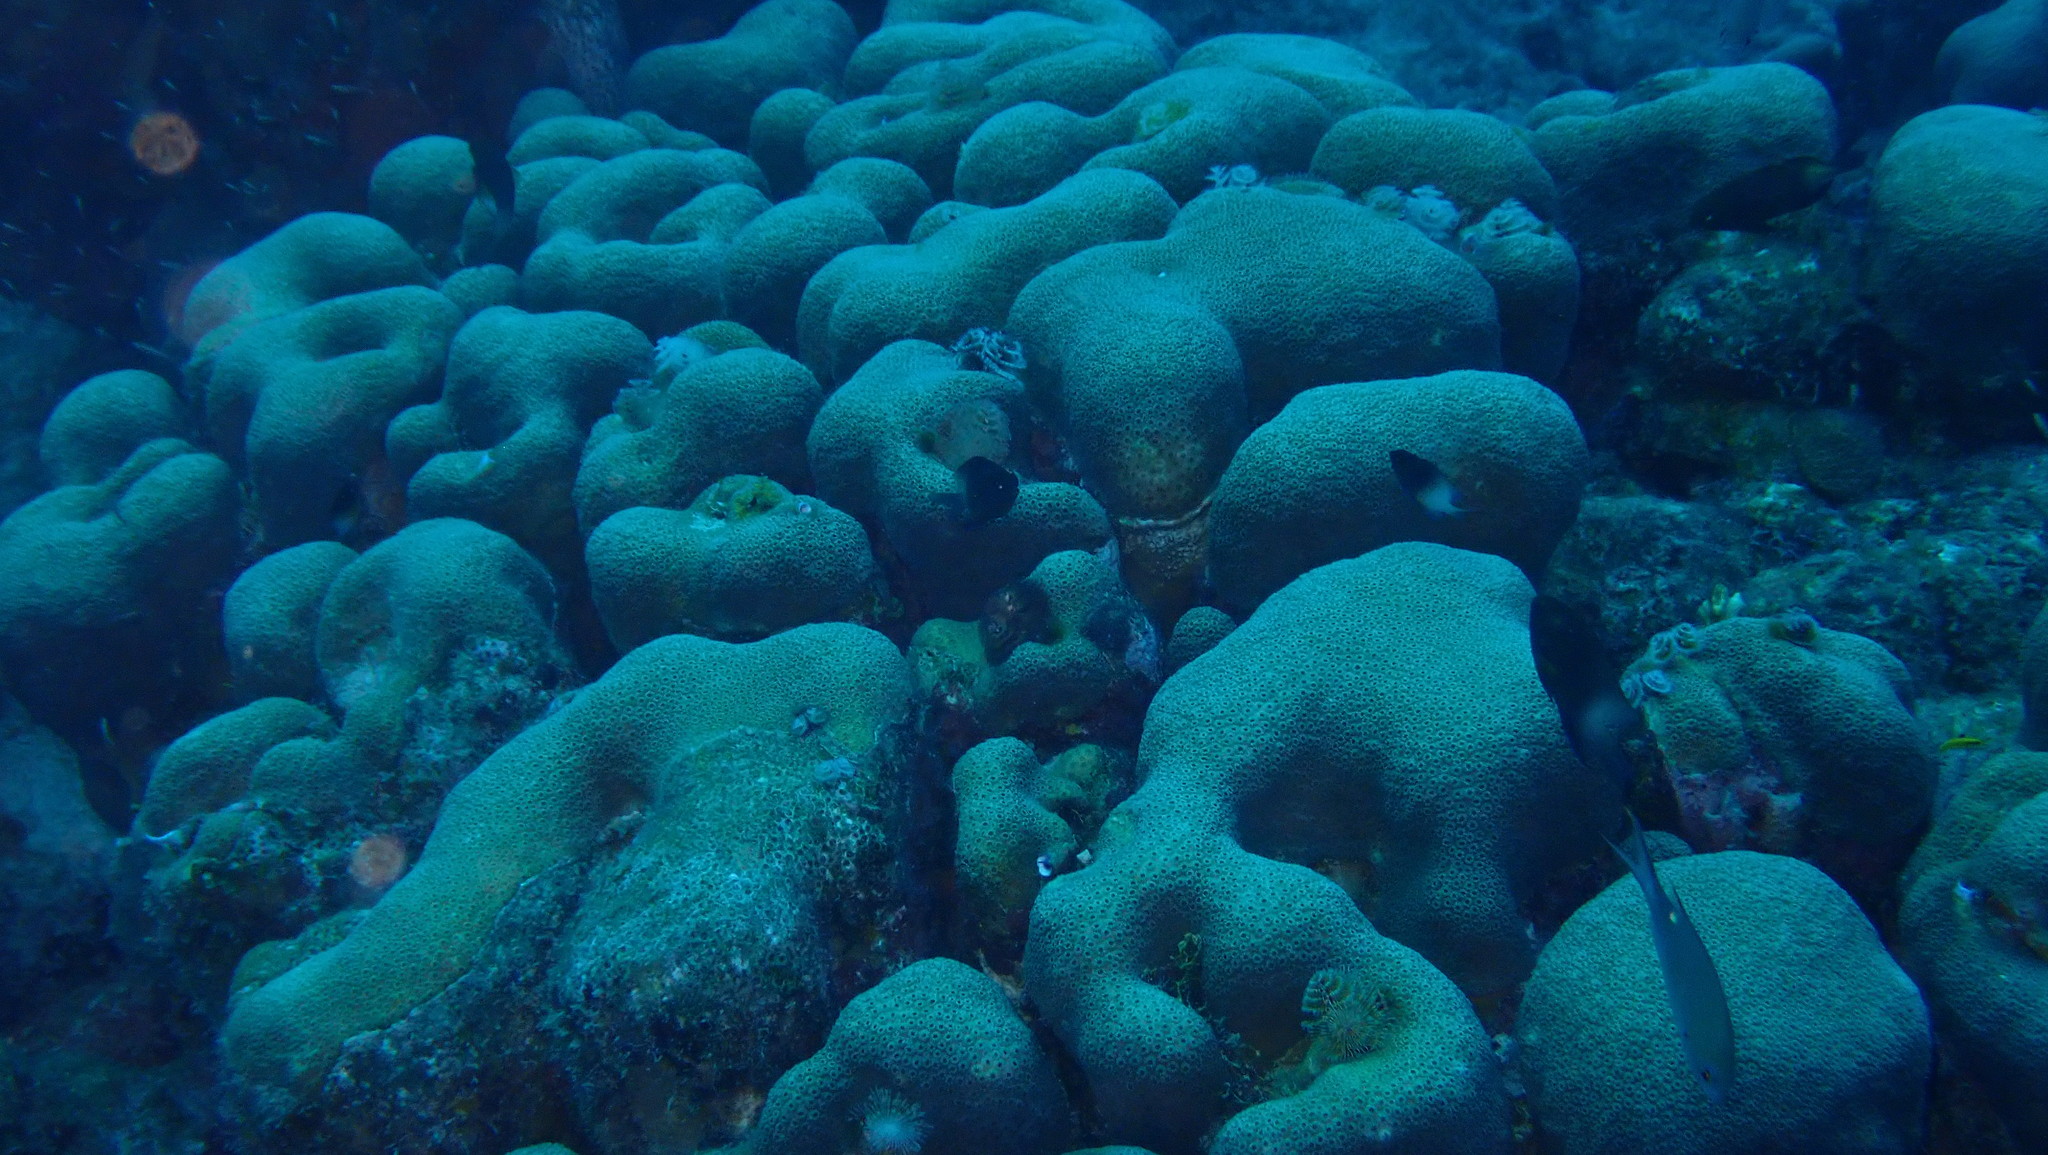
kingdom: Animalia
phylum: Cnidaria
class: Anthozoa
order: Scleractinia
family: Merulinidae
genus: Orbicella
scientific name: Orbicella annularis
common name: Boulder star coral
